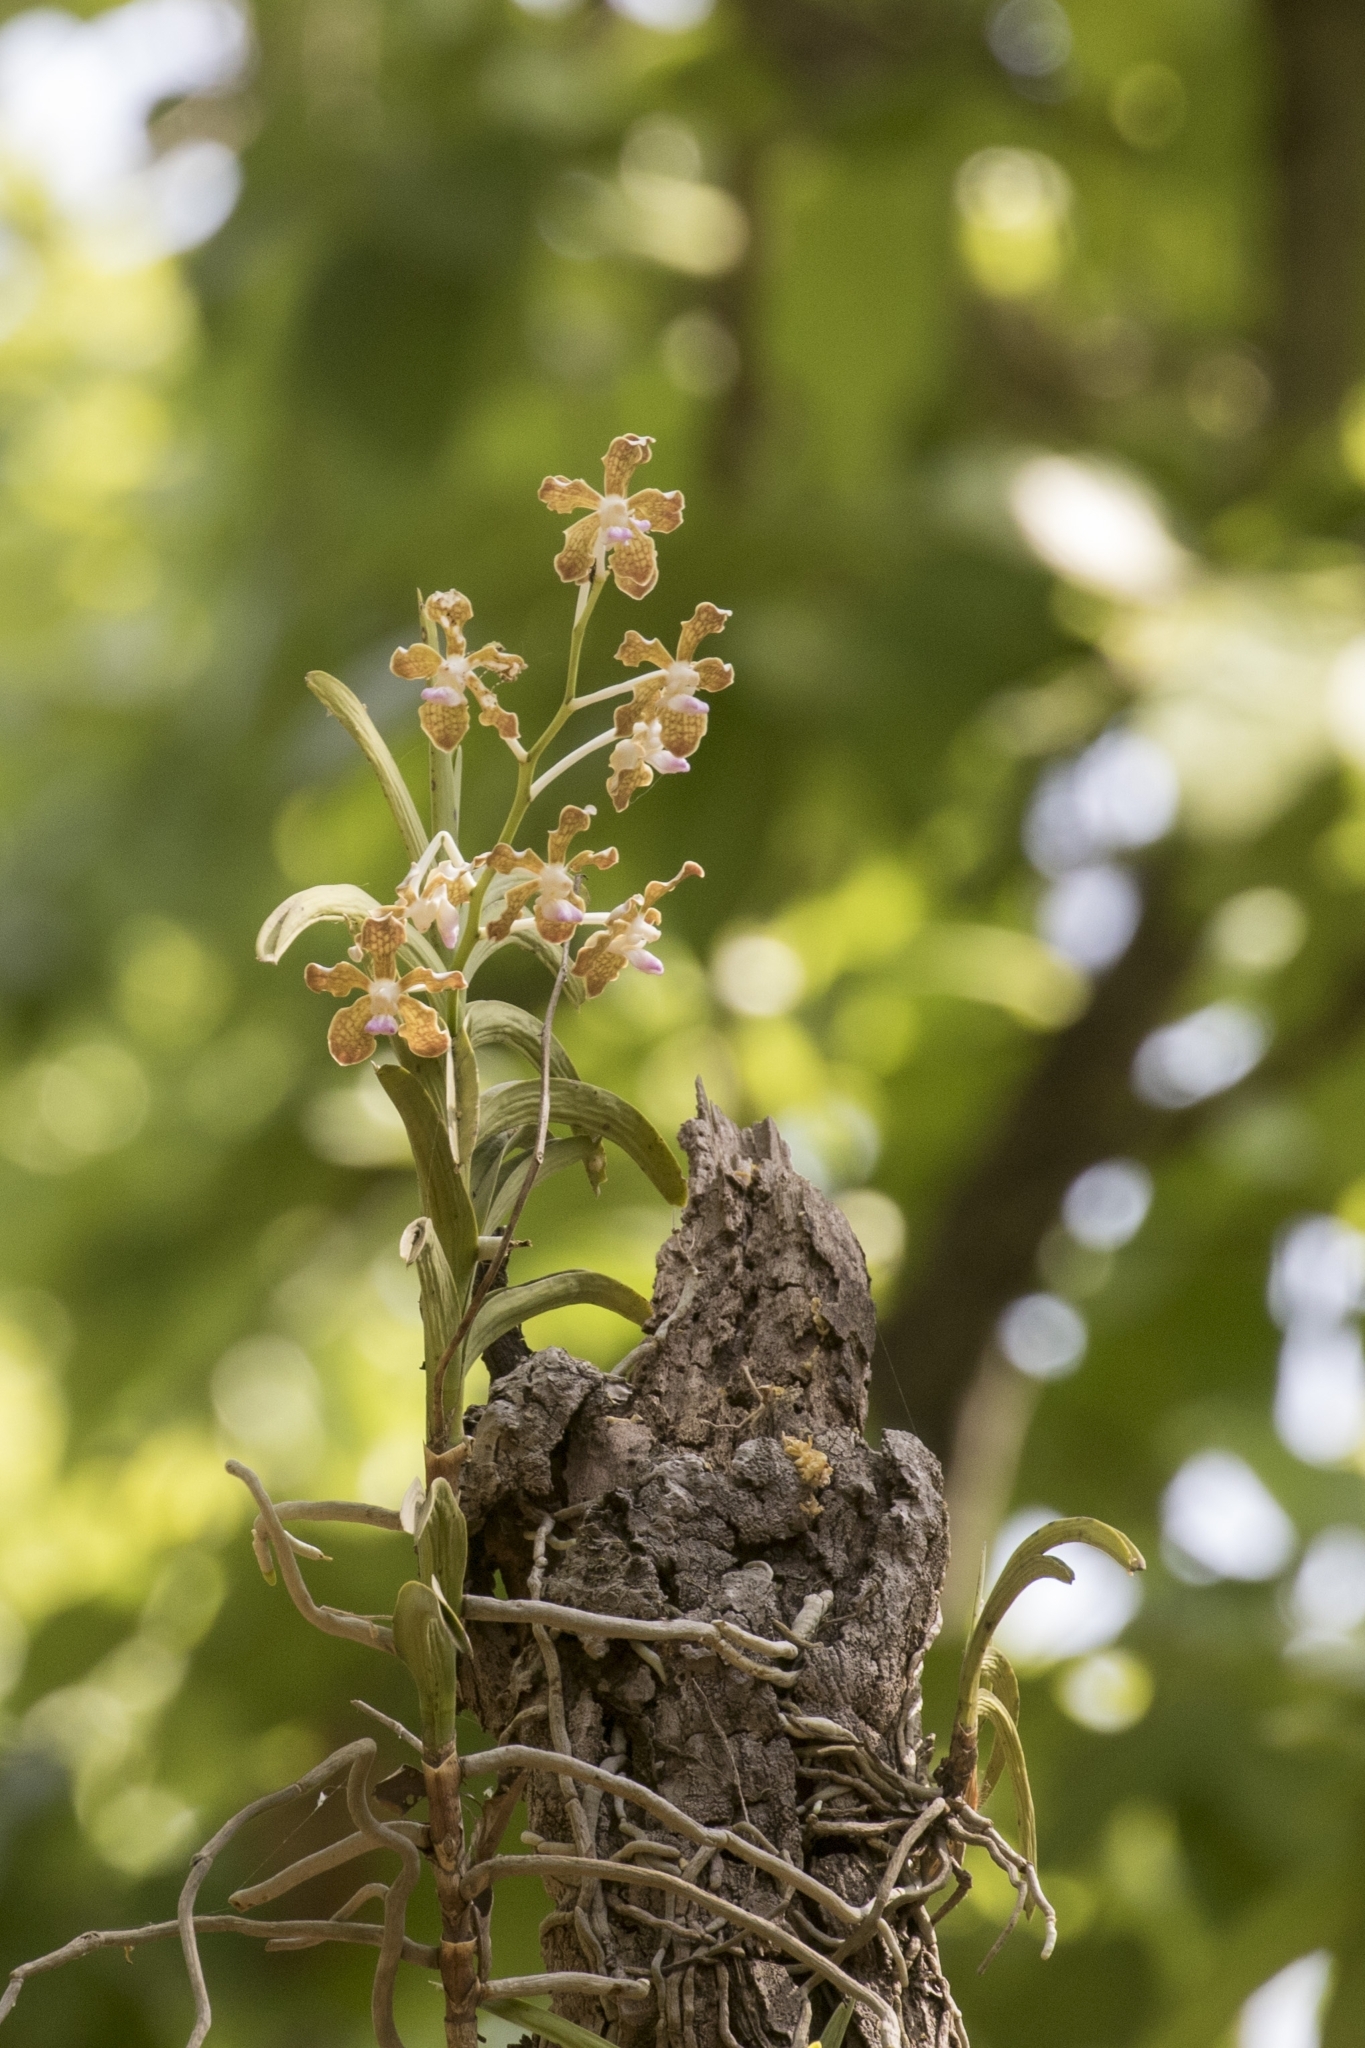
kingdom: Plantae
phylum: Tracheophyta
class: Liliopsida
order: Asparagales
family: Orchidaceae
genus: Vanda
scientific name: Vanda tessellata
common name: Grey orchid
